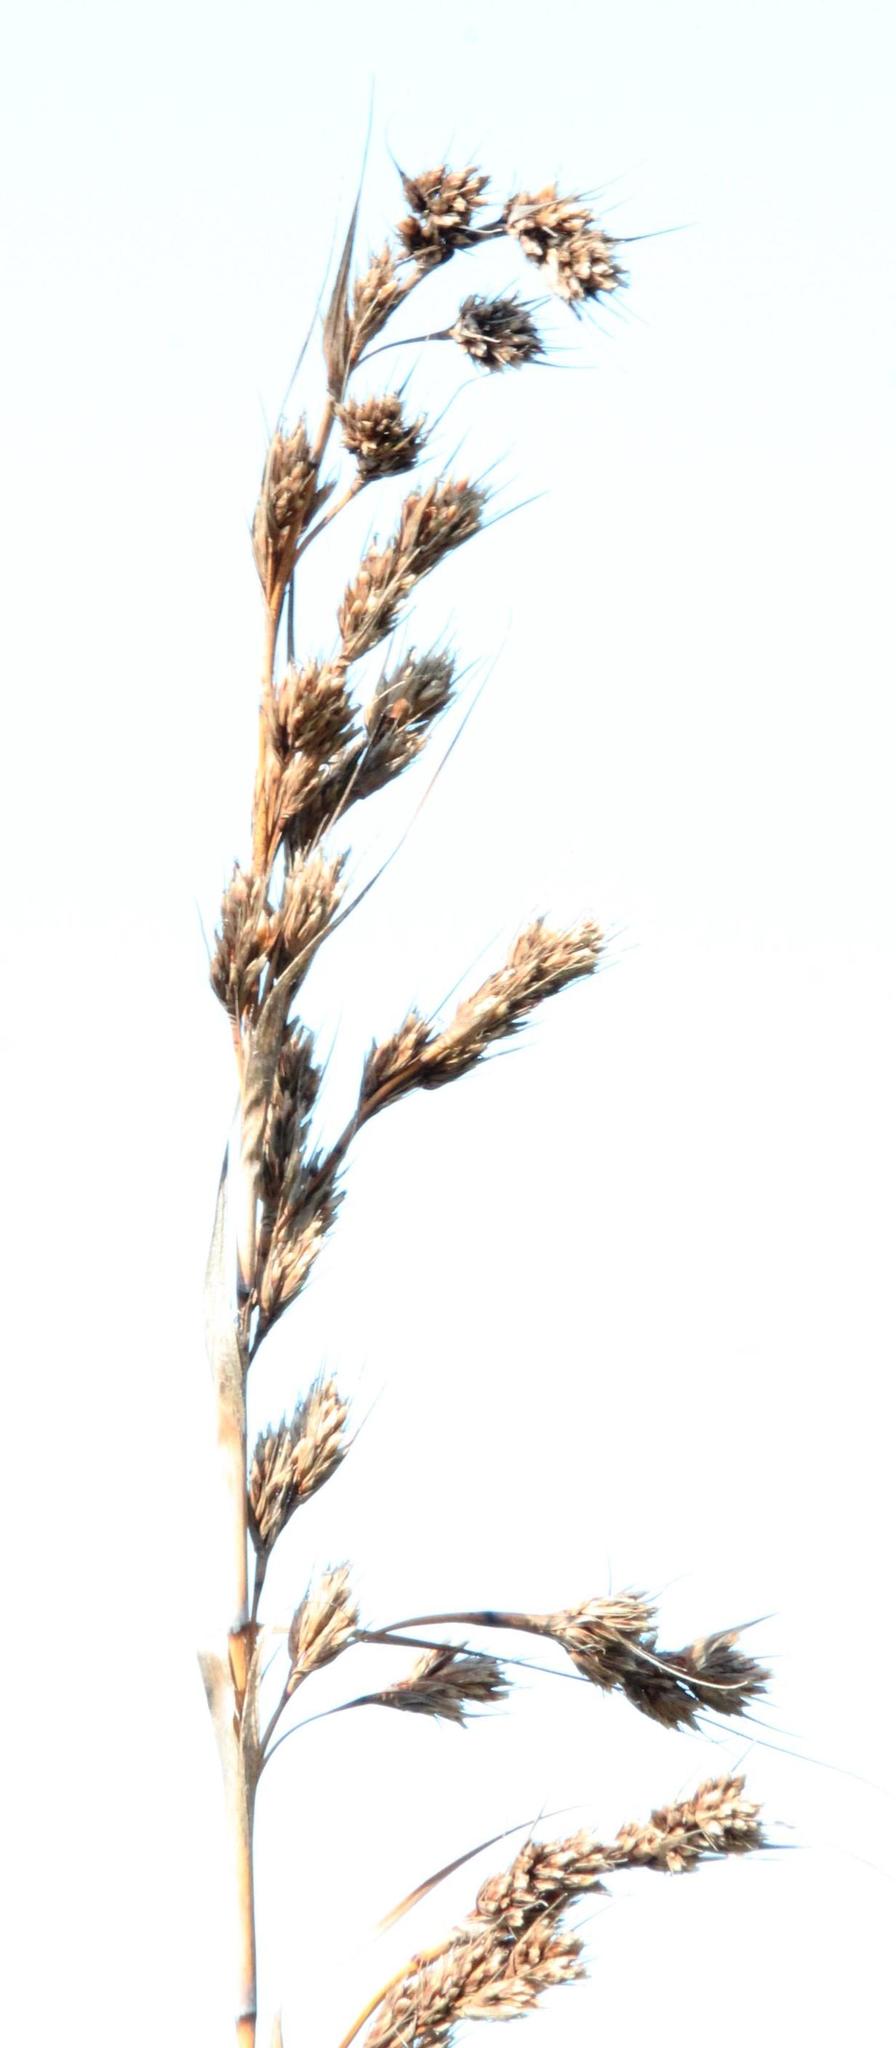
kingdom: Plantae
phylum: Tracheophyta
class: Liliopsida
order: Poales
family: Cyperaceae
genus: Tetraria
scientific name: Tetraria bromoides
